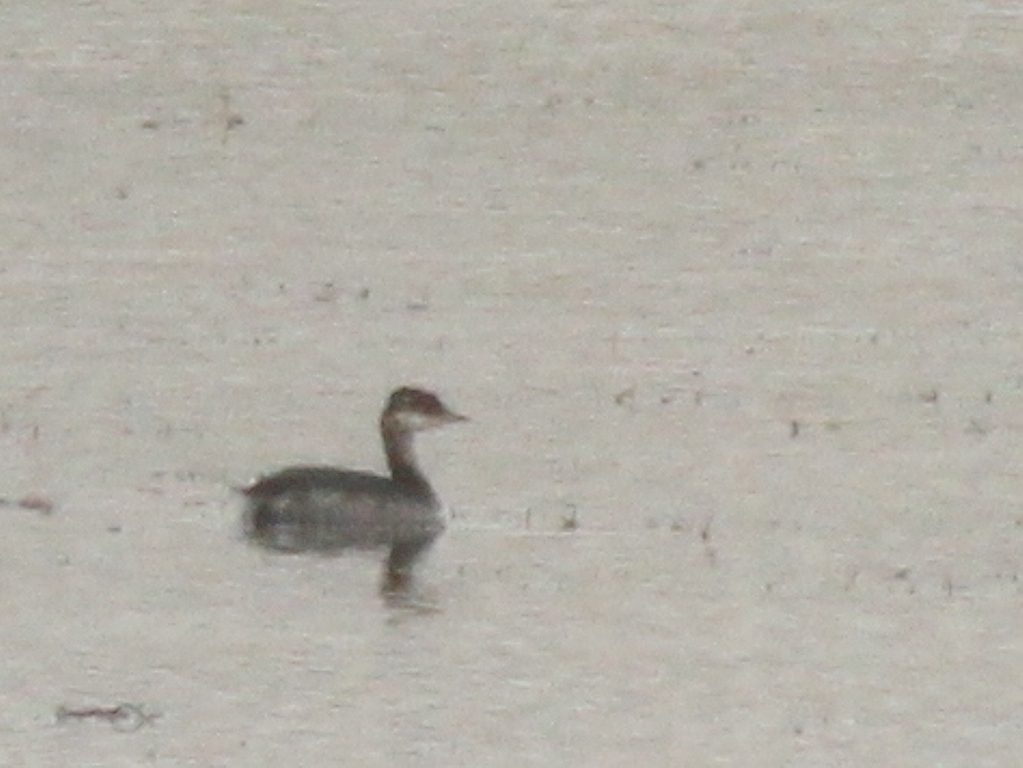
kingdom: Animalia
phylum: Chordata
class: Aves
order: Podicipediformes
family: Podicipedidae
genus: Podiceps
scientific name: Podiceps auritus
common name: Horned grebe
